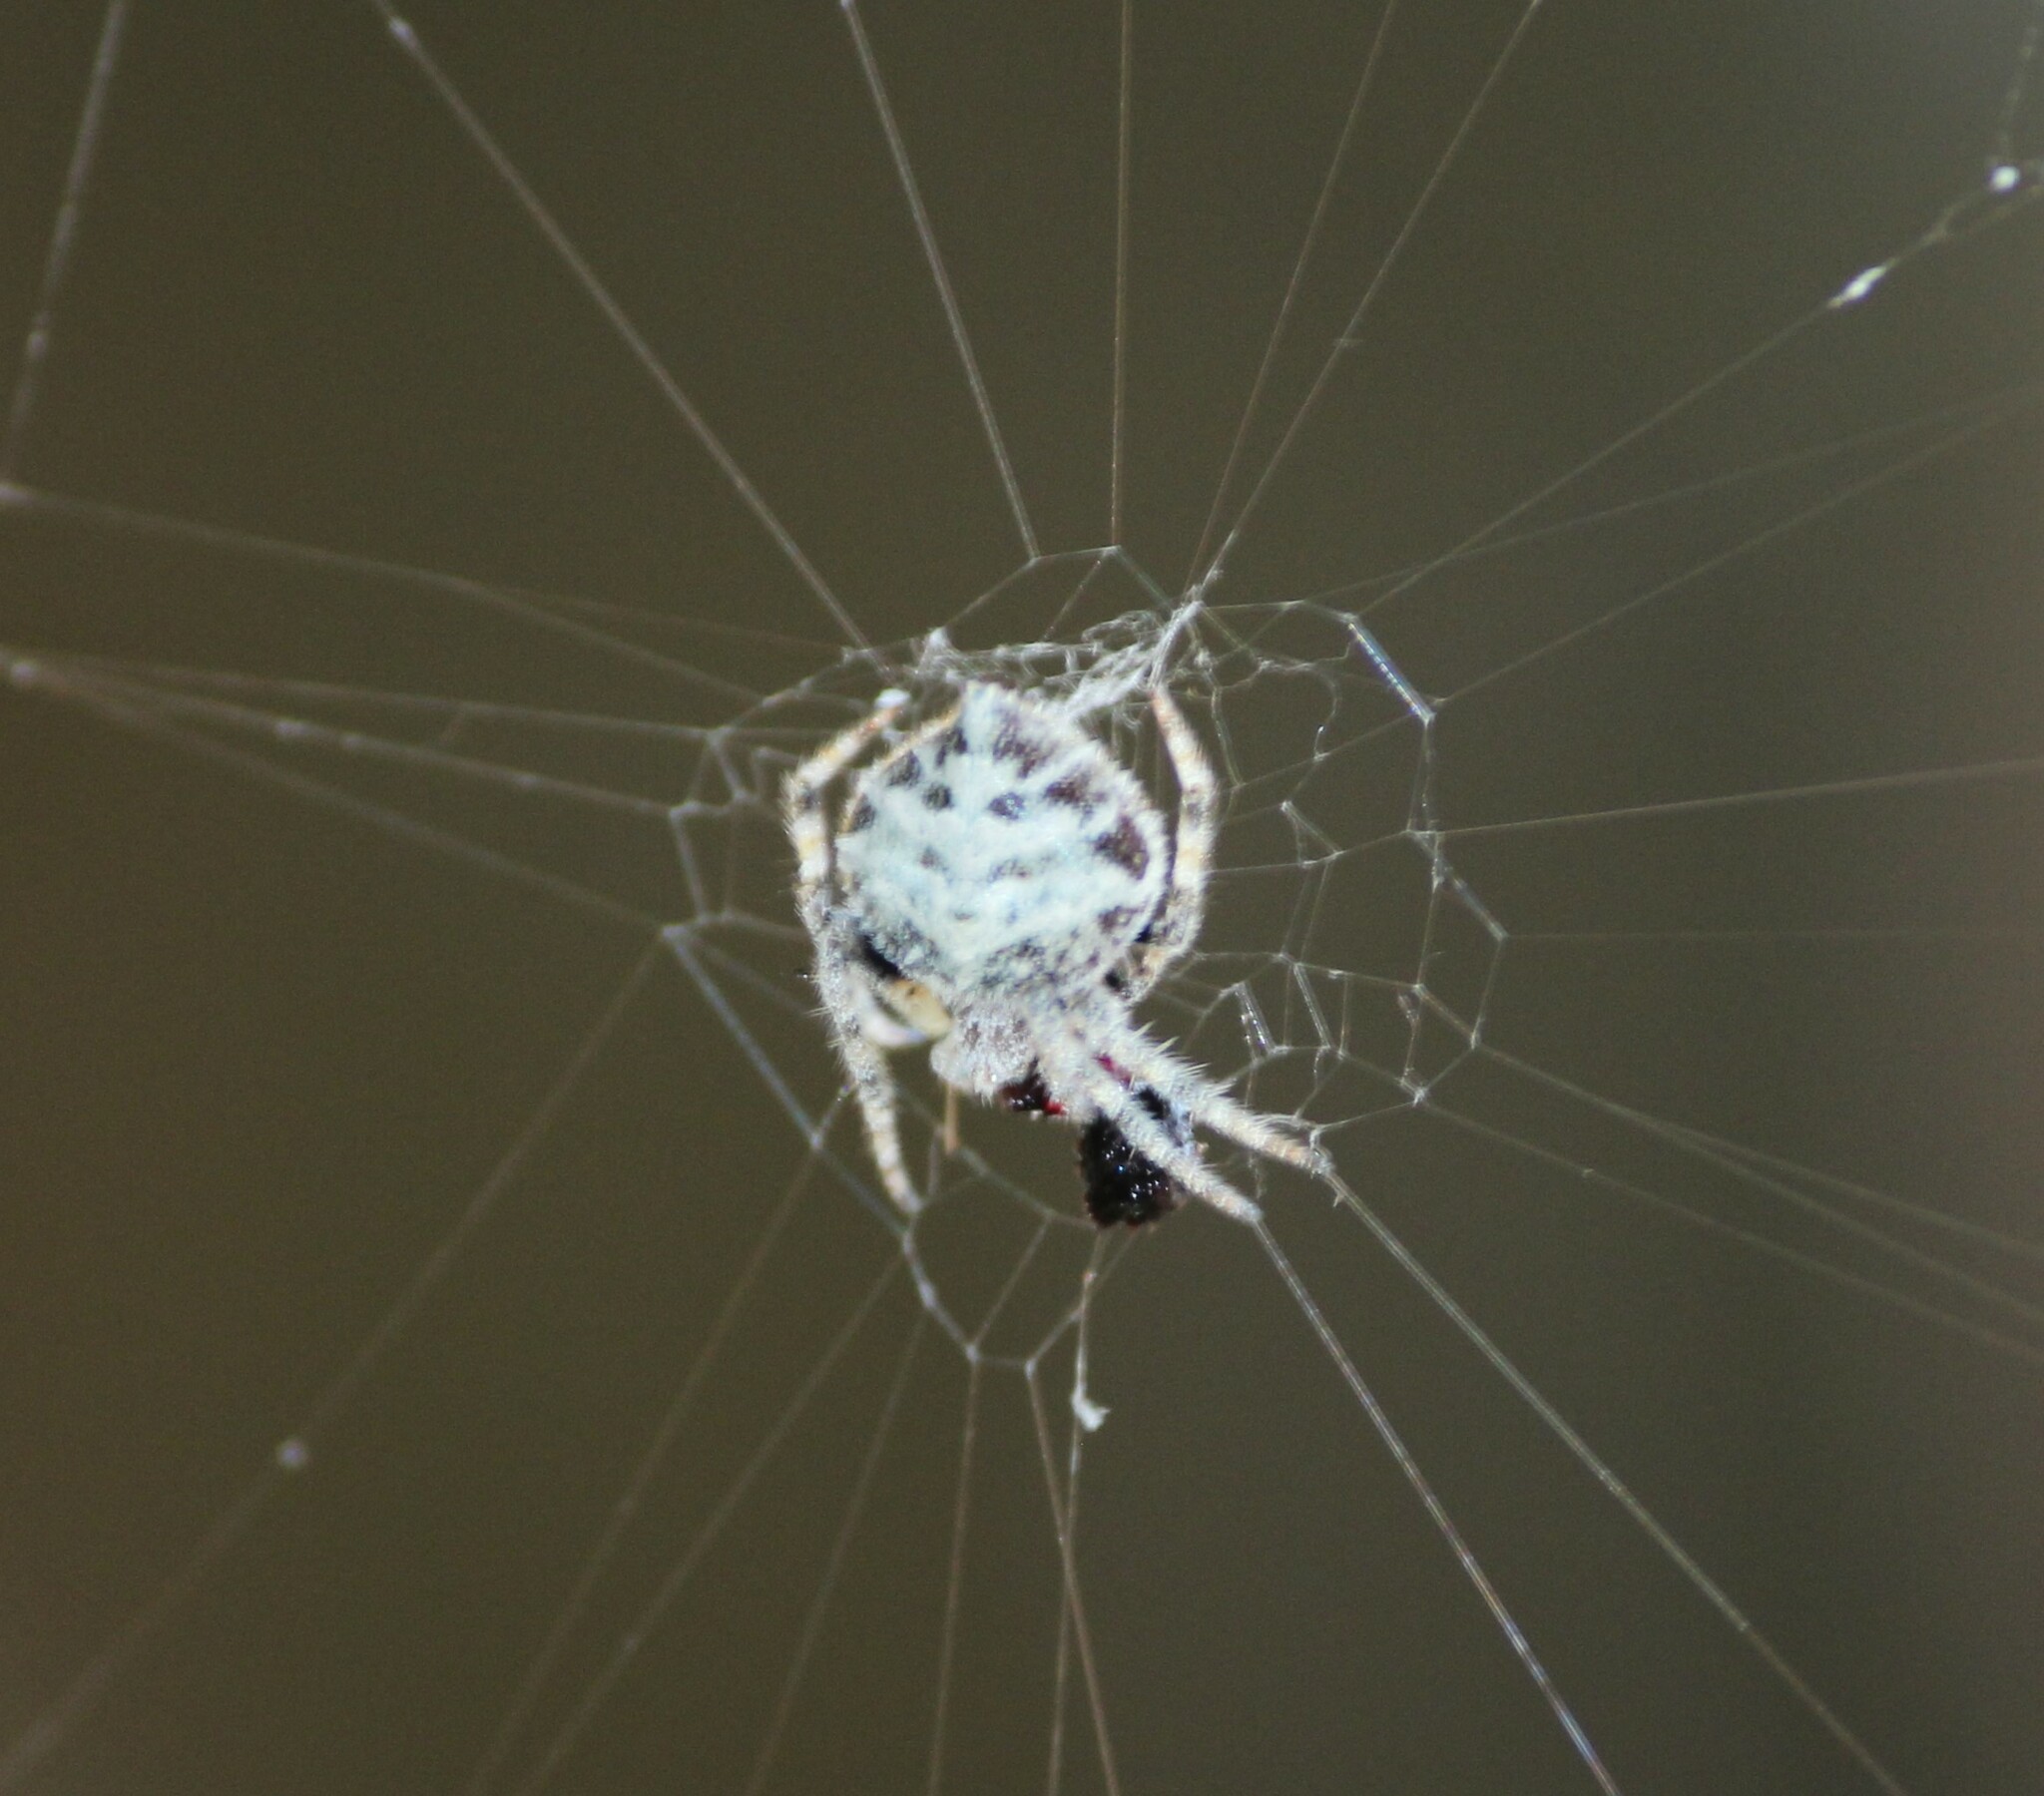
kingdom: Animalia
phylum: Arthropoda
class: Arachnida
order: Araneae
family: Araneidae
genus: Eriovixia
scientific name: Eriovixia laglaizei
